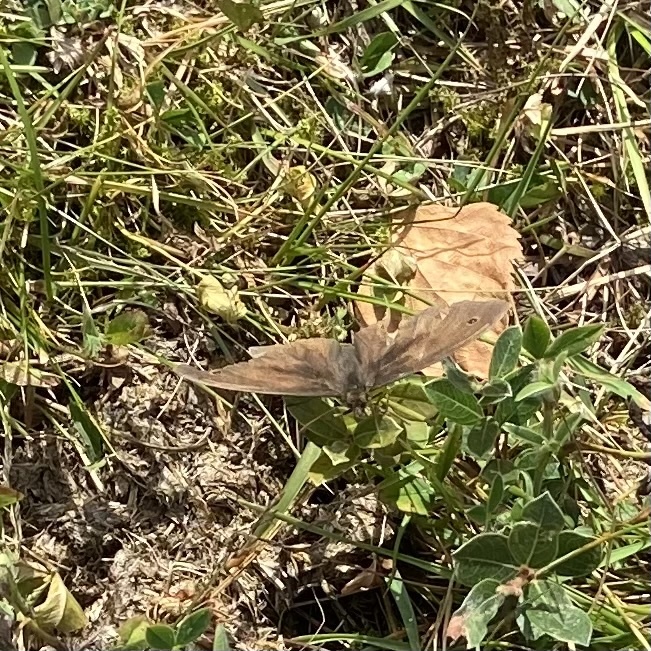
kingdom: Animalia
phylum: Arthropoda
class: Insecta
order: Lepidoptera
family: Nymphalidae
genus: Maniola
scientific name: Maniola jurtina
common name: Meadow brown
